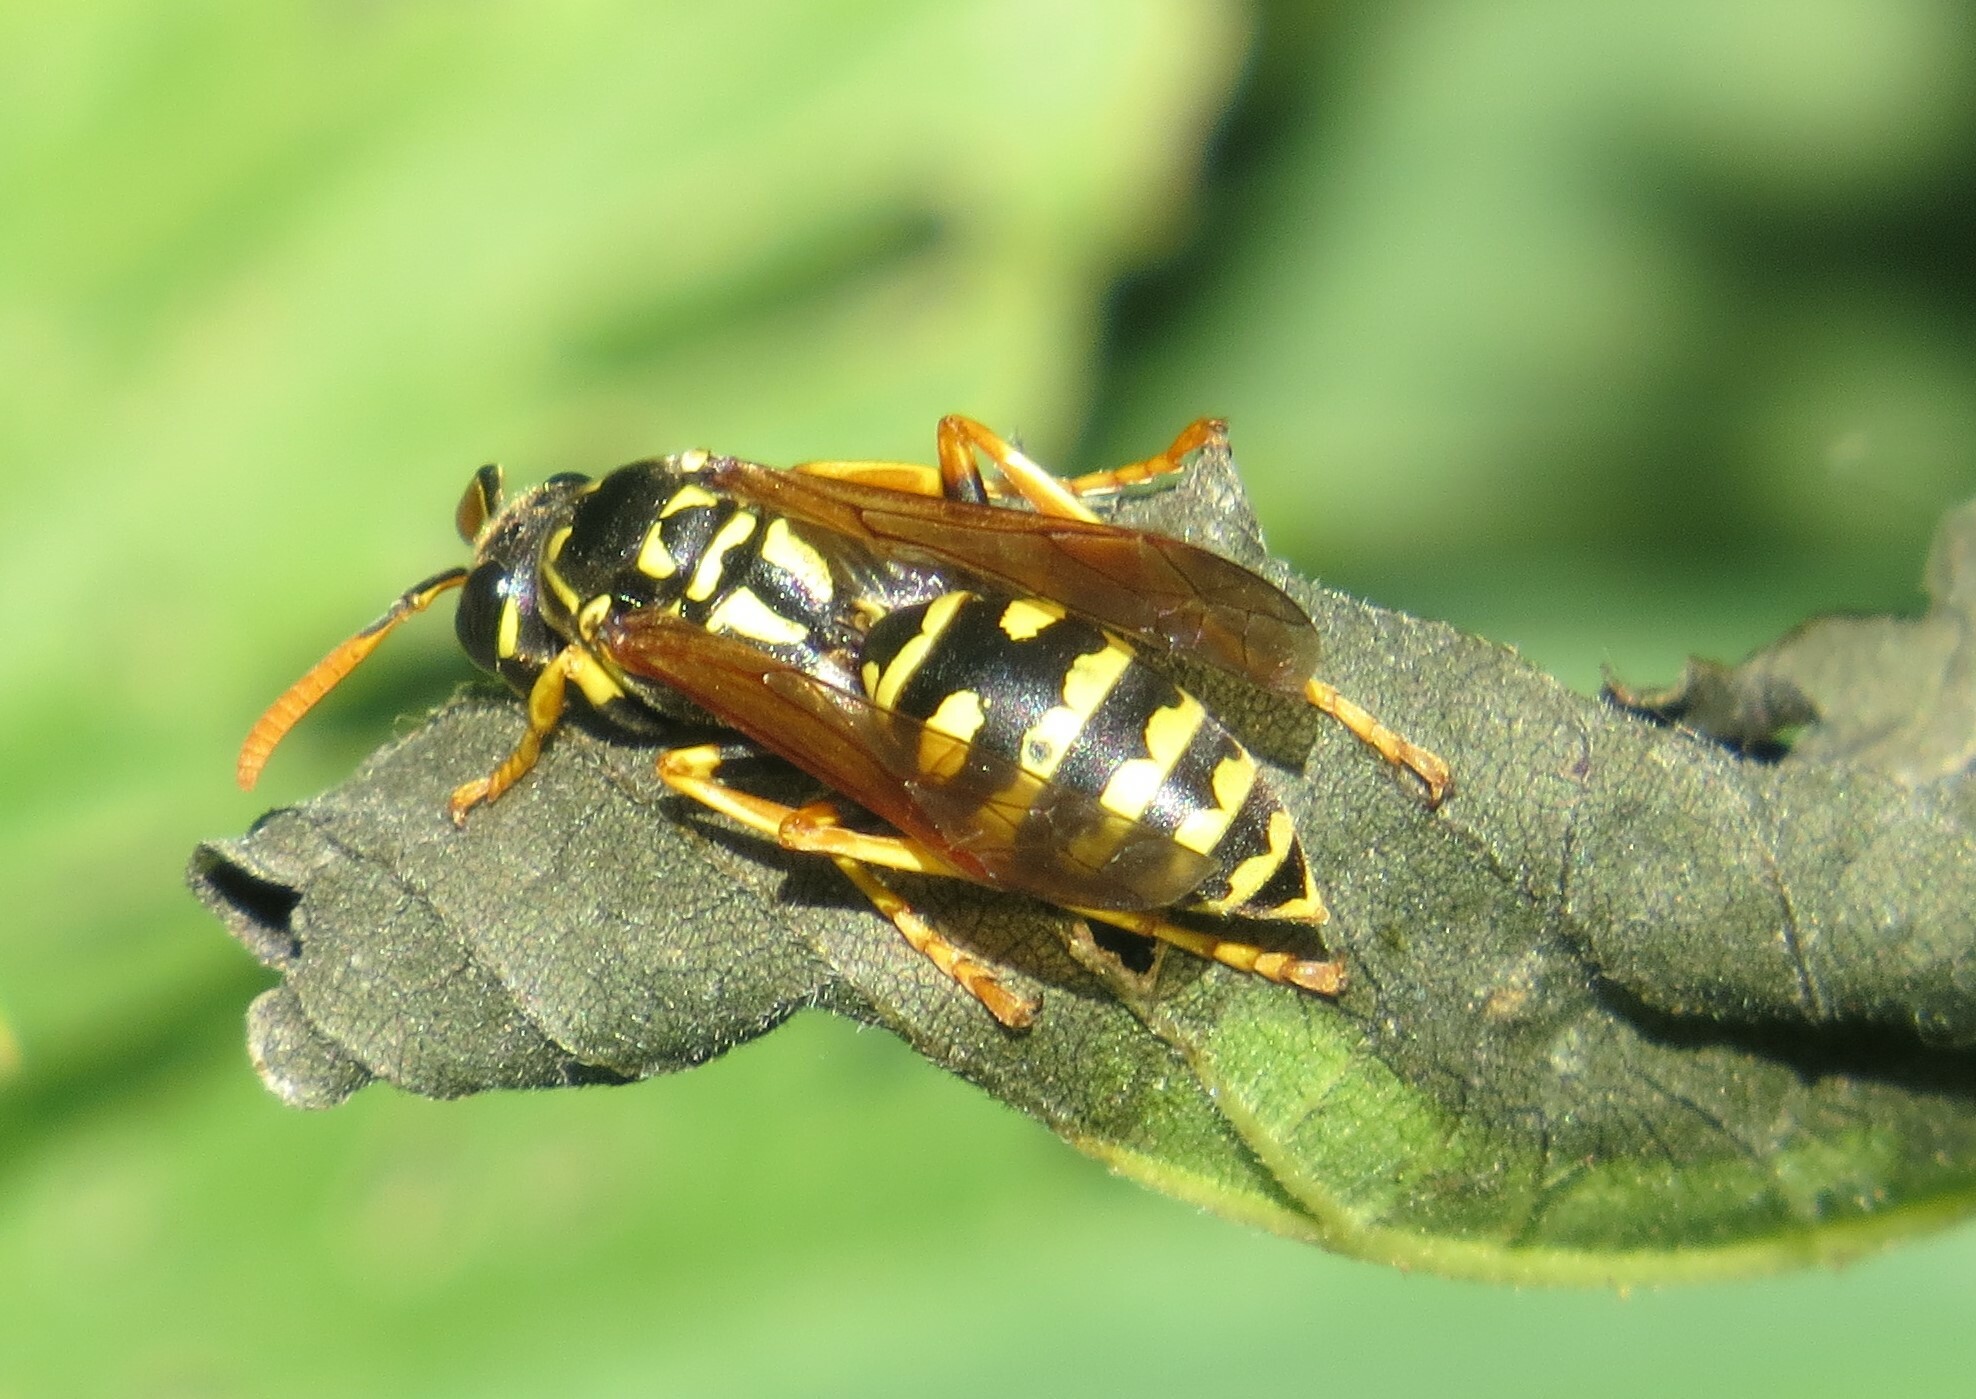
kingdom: Animalia
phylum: Arthropoda
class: Insecta
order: Hymenoptera
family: Eumenidae
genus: Polistes
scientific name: Polistes dominula
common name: Paper wasp
